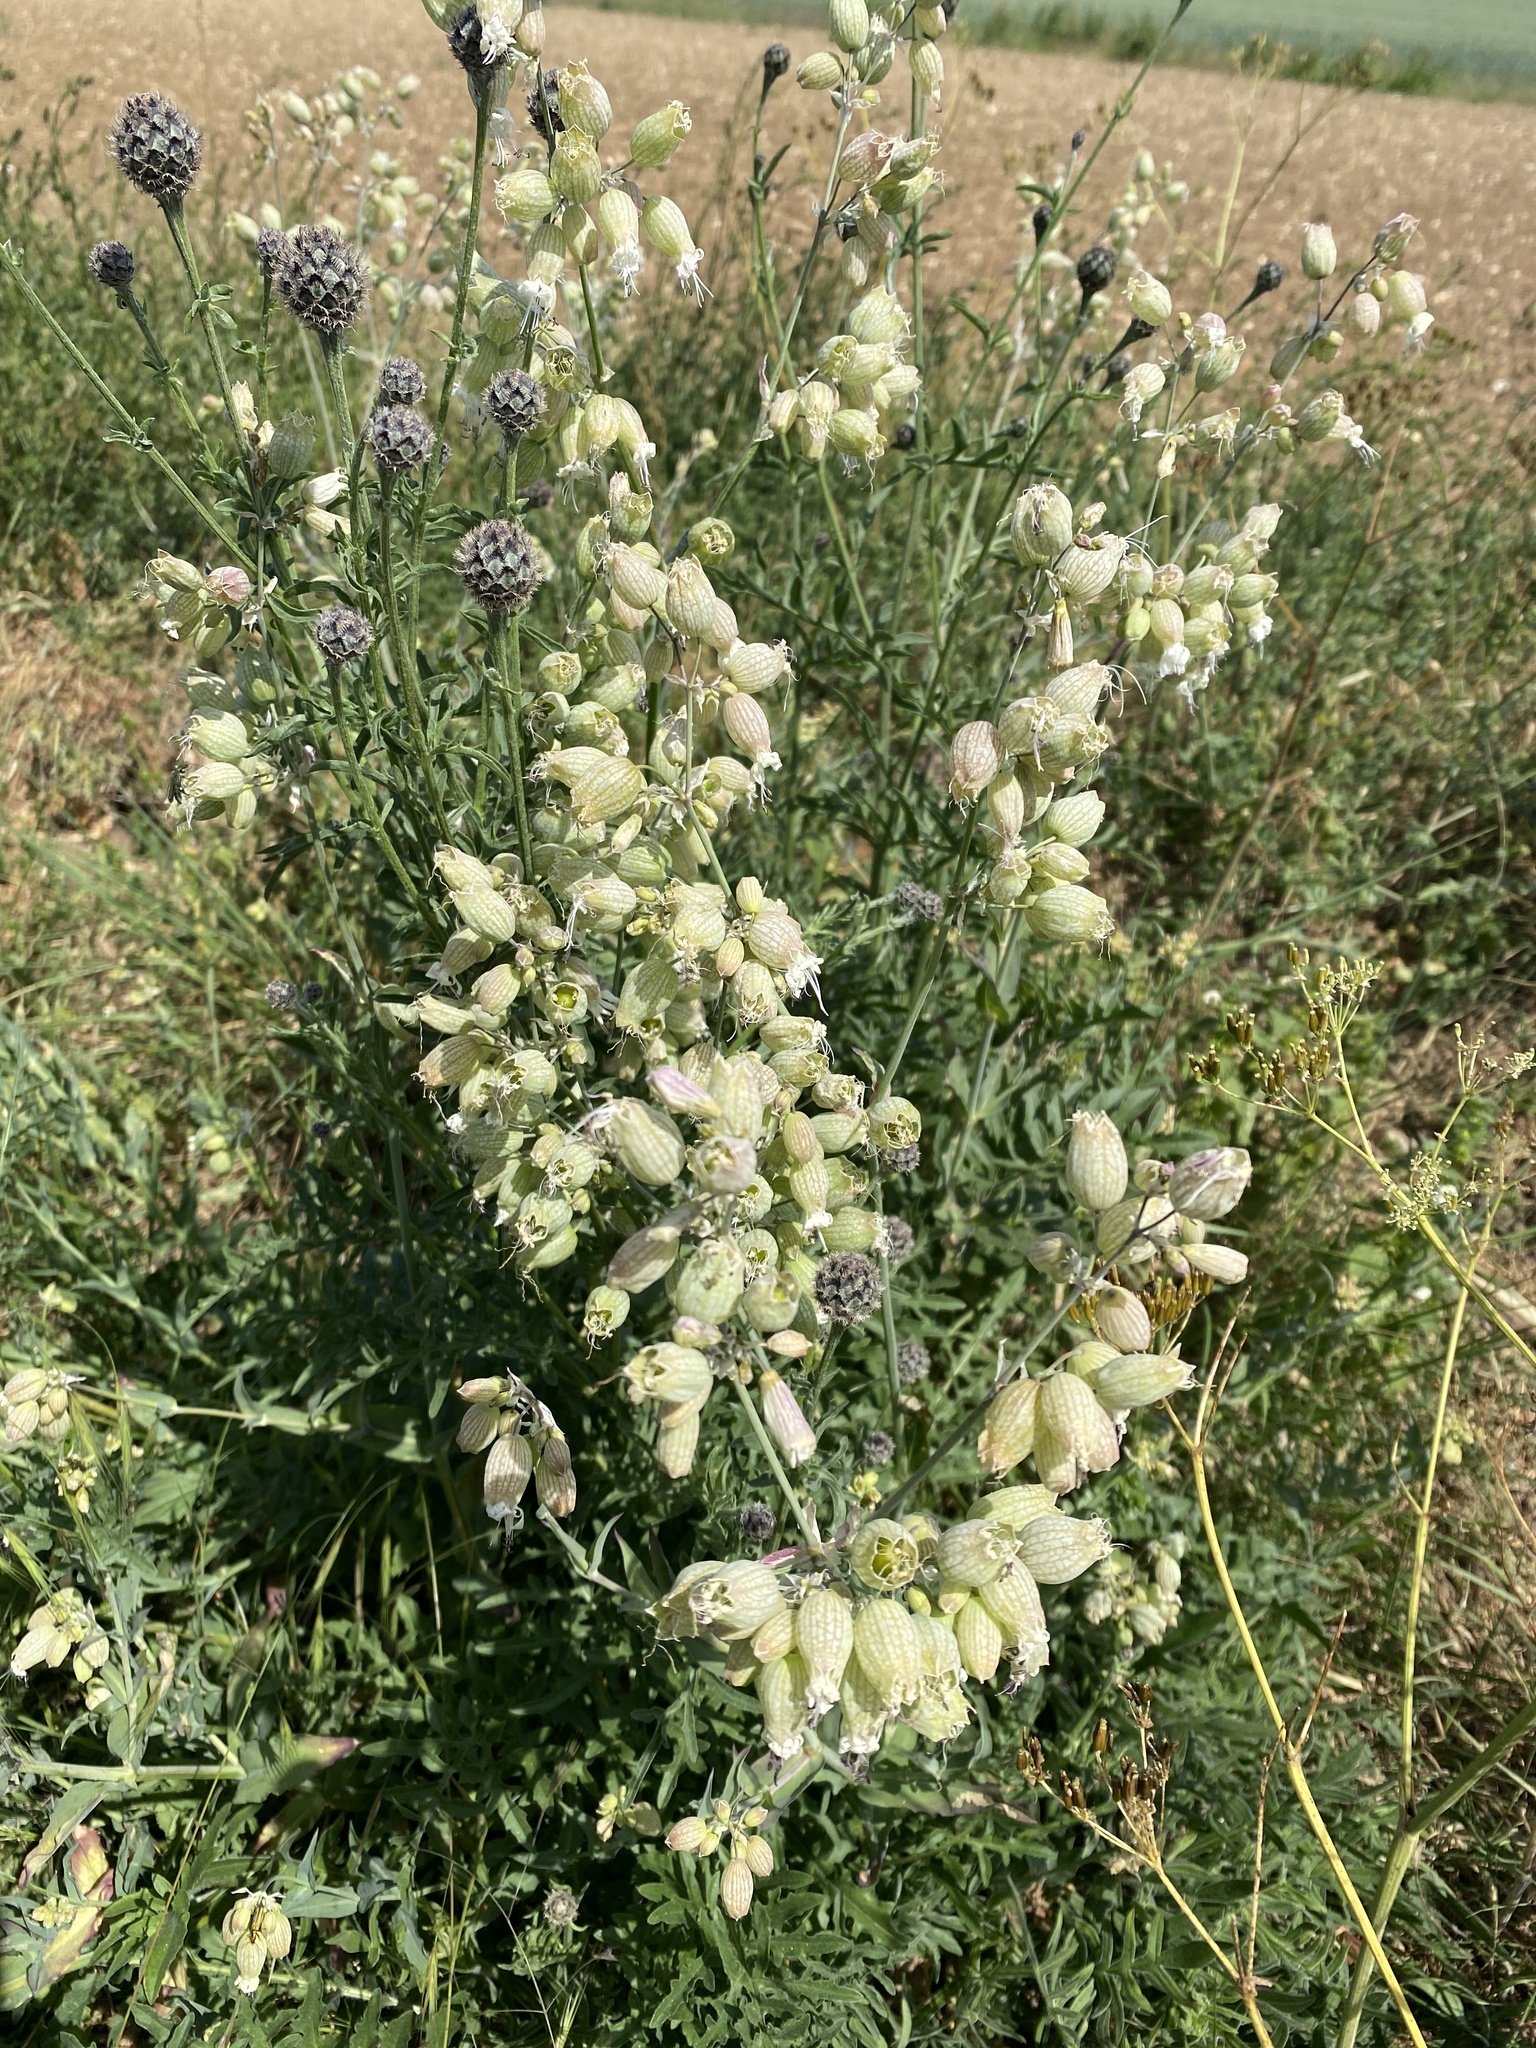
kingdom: Plantae
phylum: Tracheophyta
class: Magnoliopsida
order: Caryophyllales
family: Caryophyllaceae
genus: Silene
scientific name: Silene vulgaris
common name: Bladder campion
